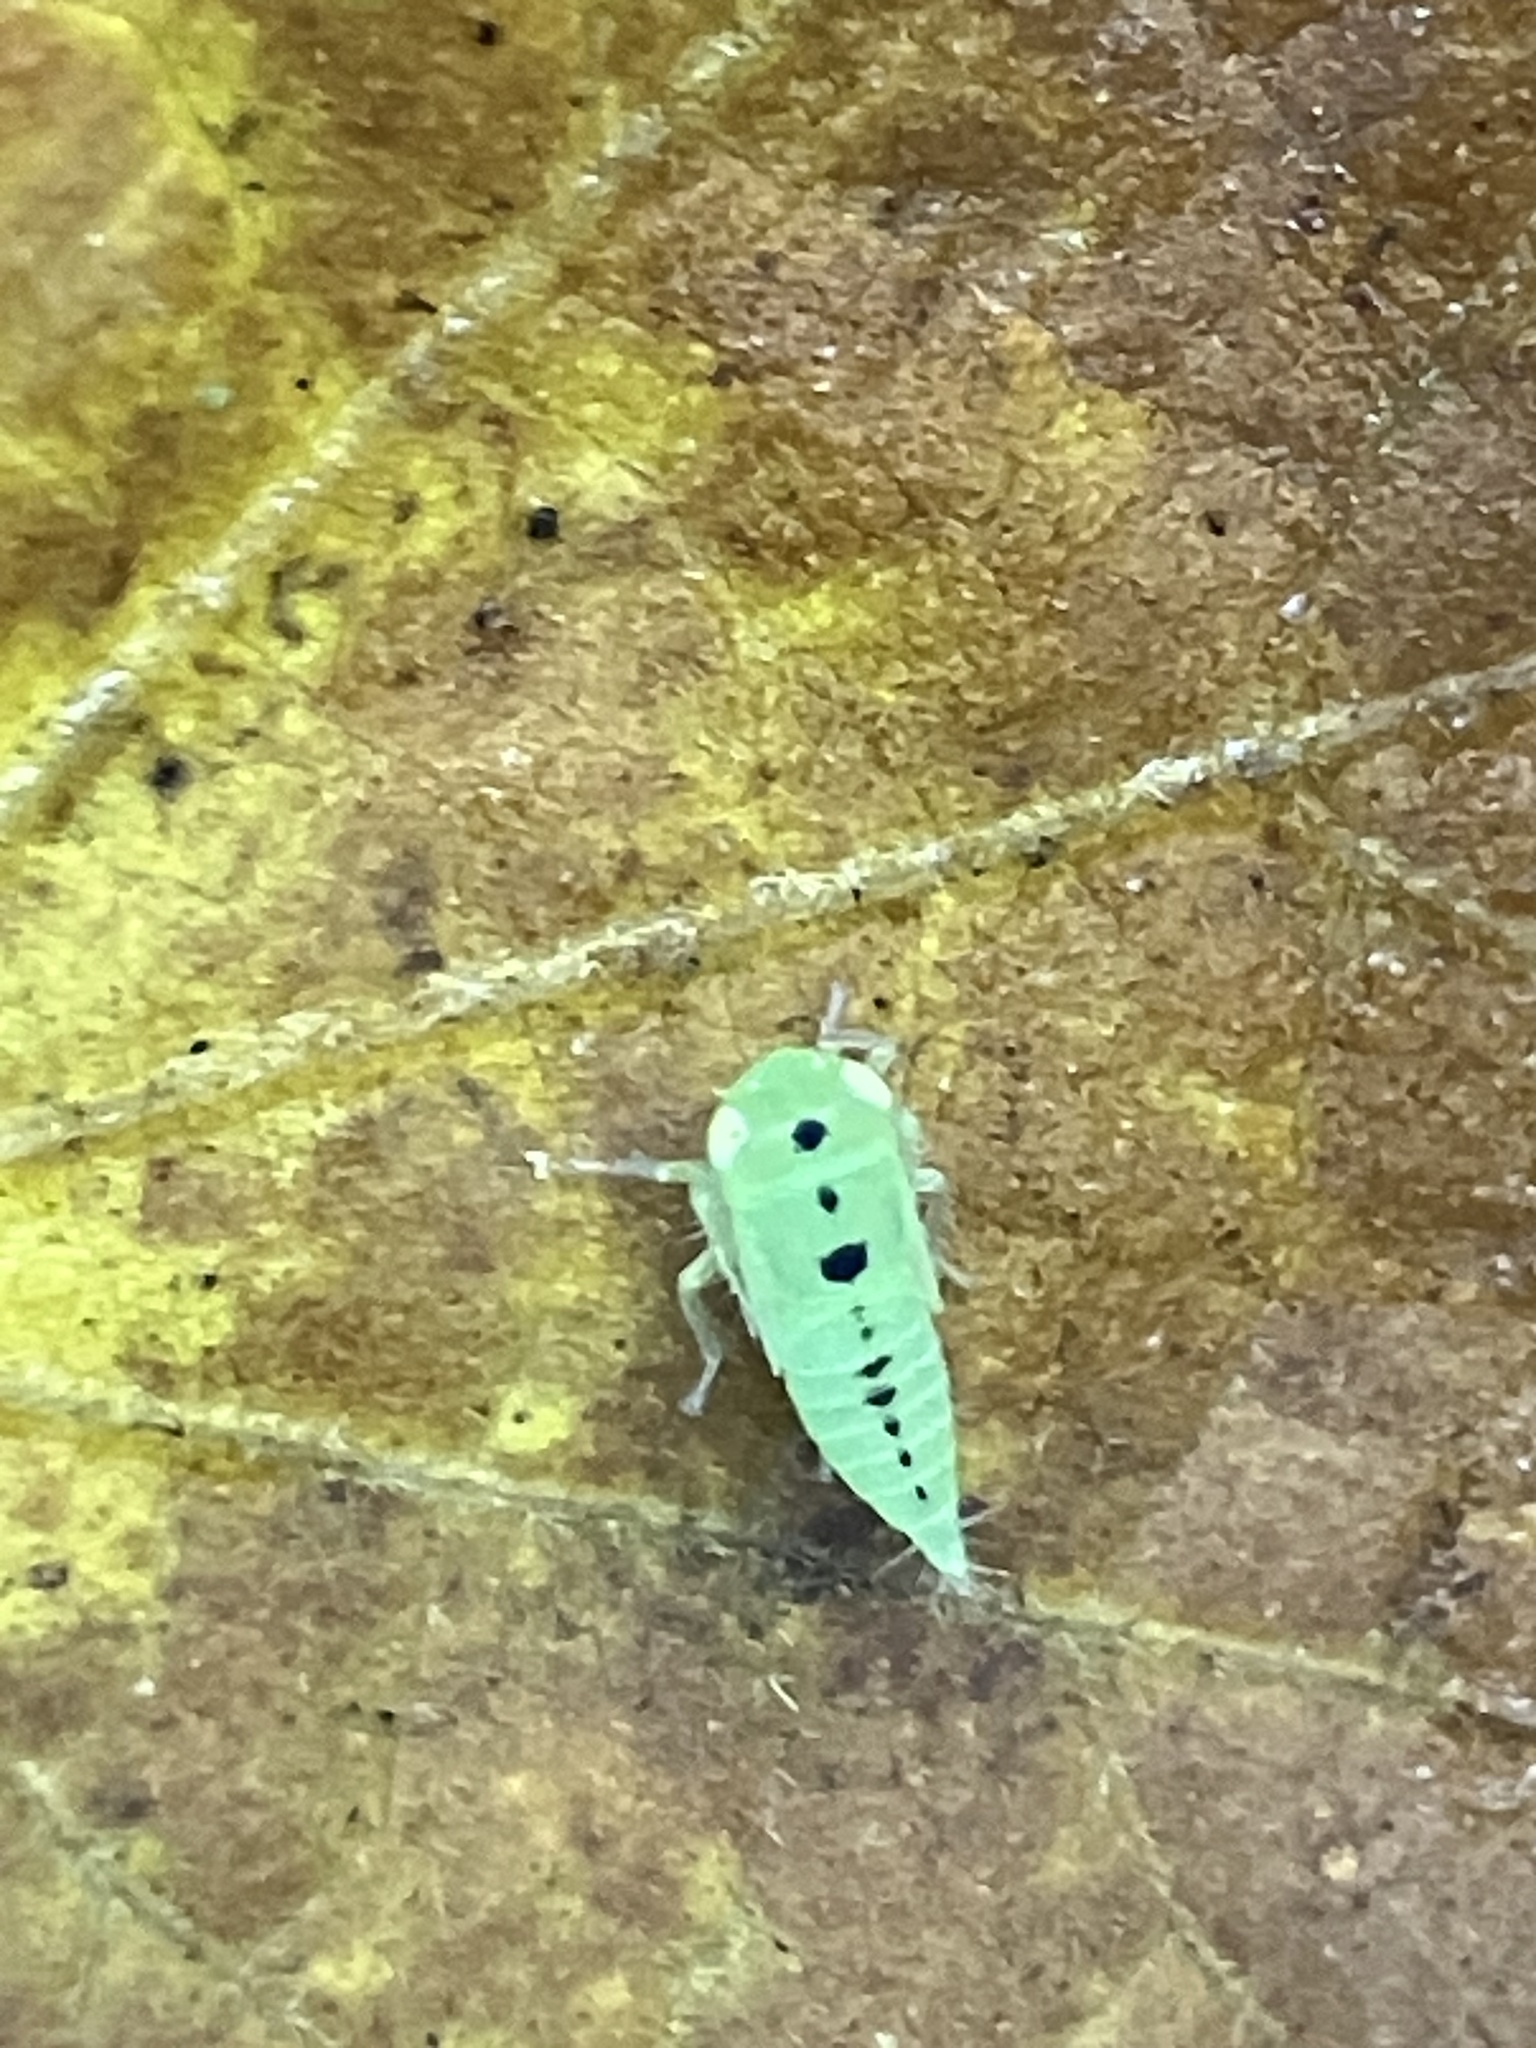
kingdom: Animalia
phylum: Arthropoda
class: Insecta
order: Hemiptera
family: Cicadellidae
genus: Chlorotettix
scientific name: Chlorotettix
